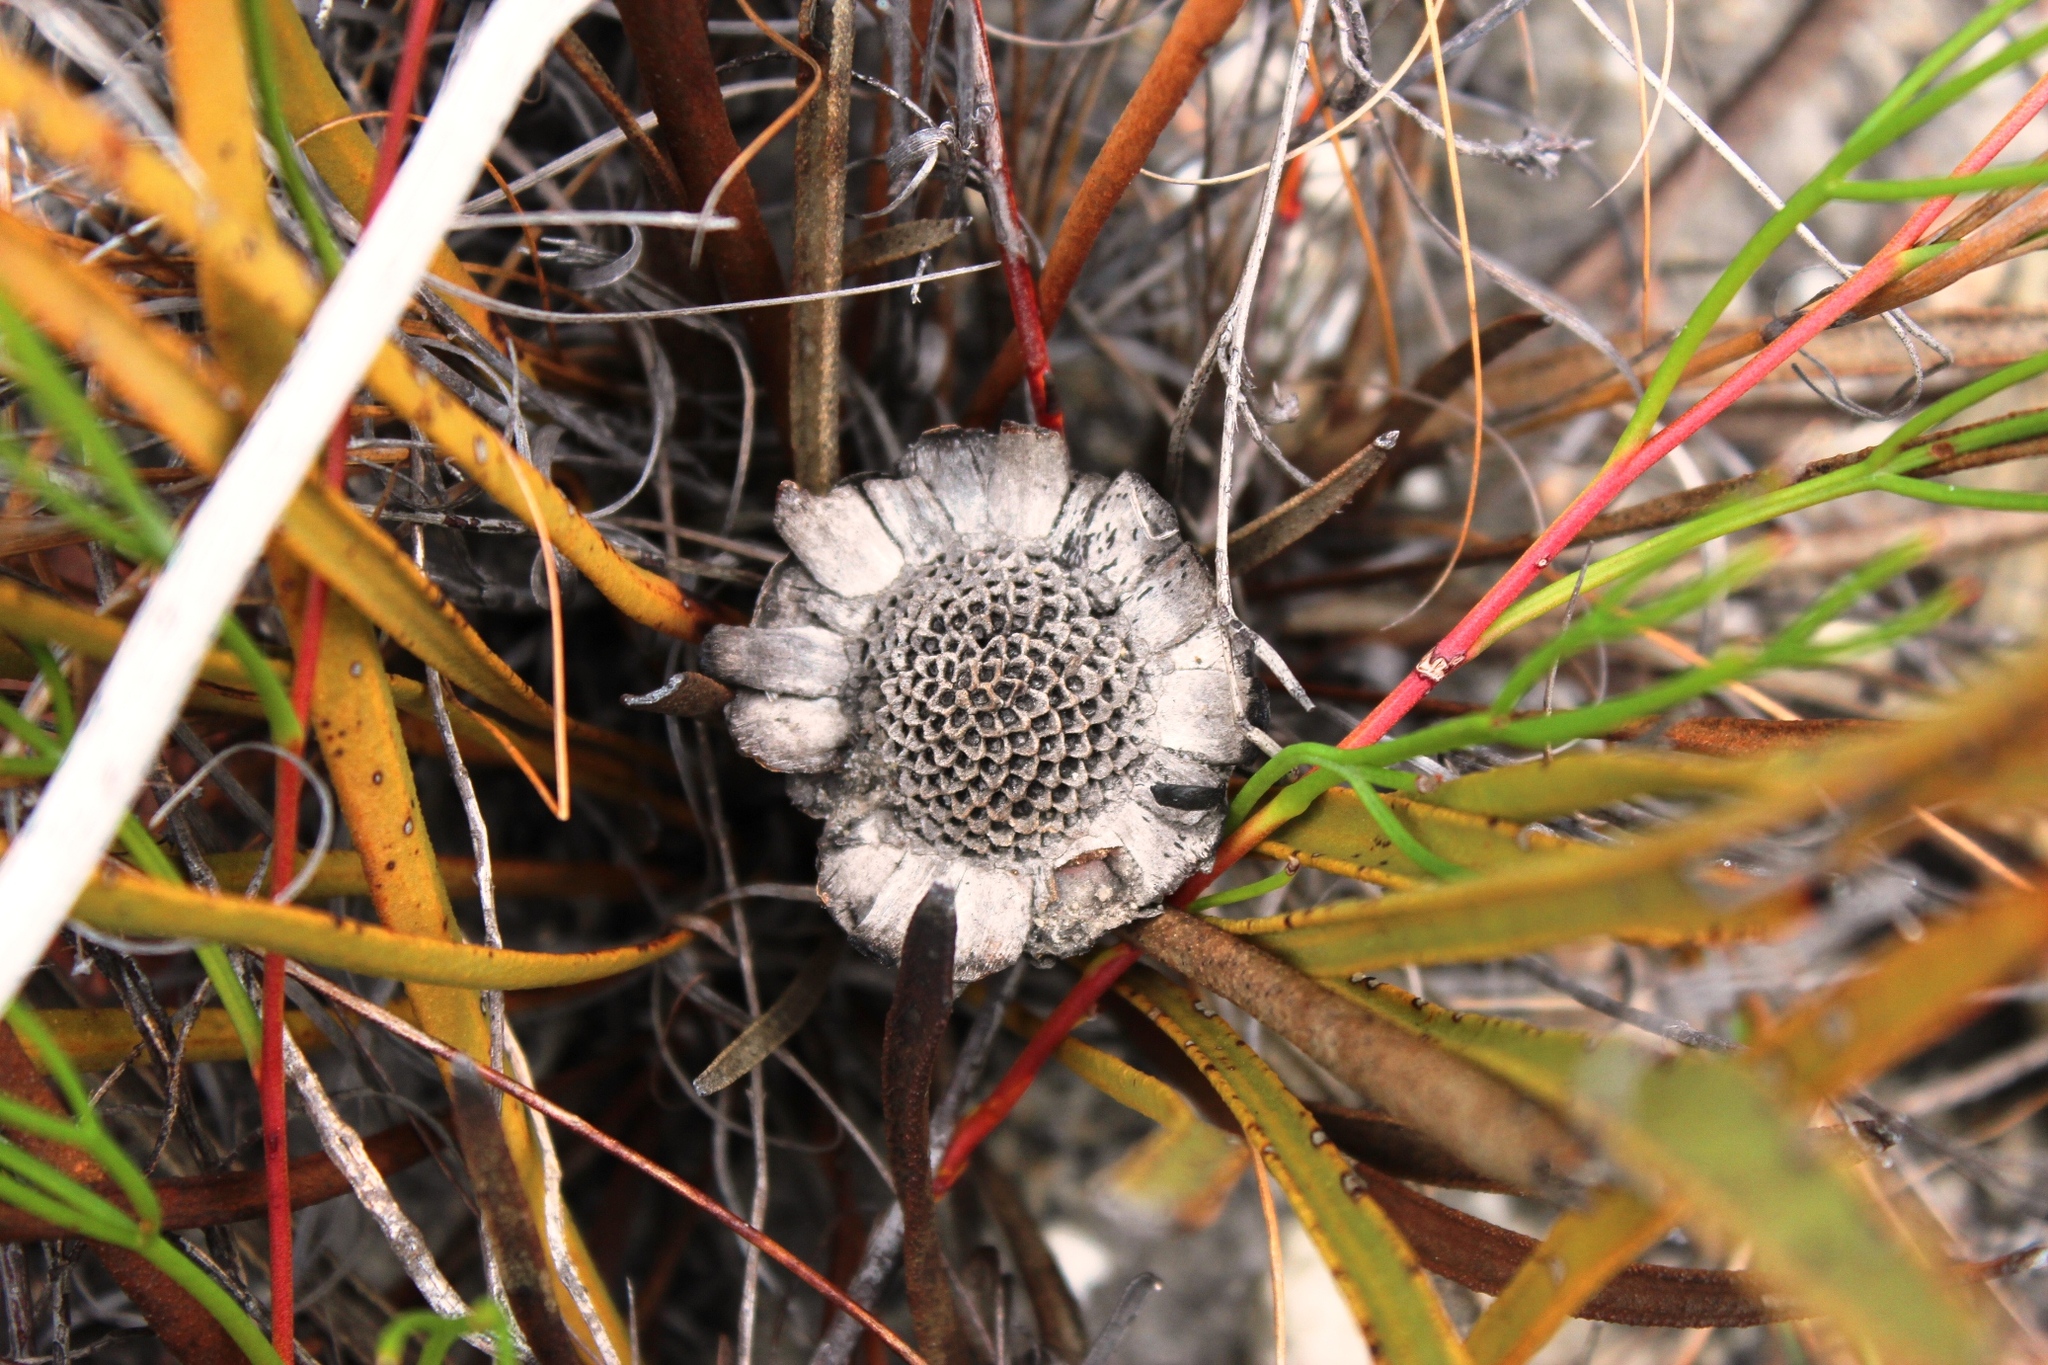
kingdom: Plantae
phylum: Tracheophyta
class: Magnoliopsida
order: Proteales
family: Proteaceae
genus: Protea
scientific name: Protea scabra
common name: Sandpaper-leaf sugarbush
